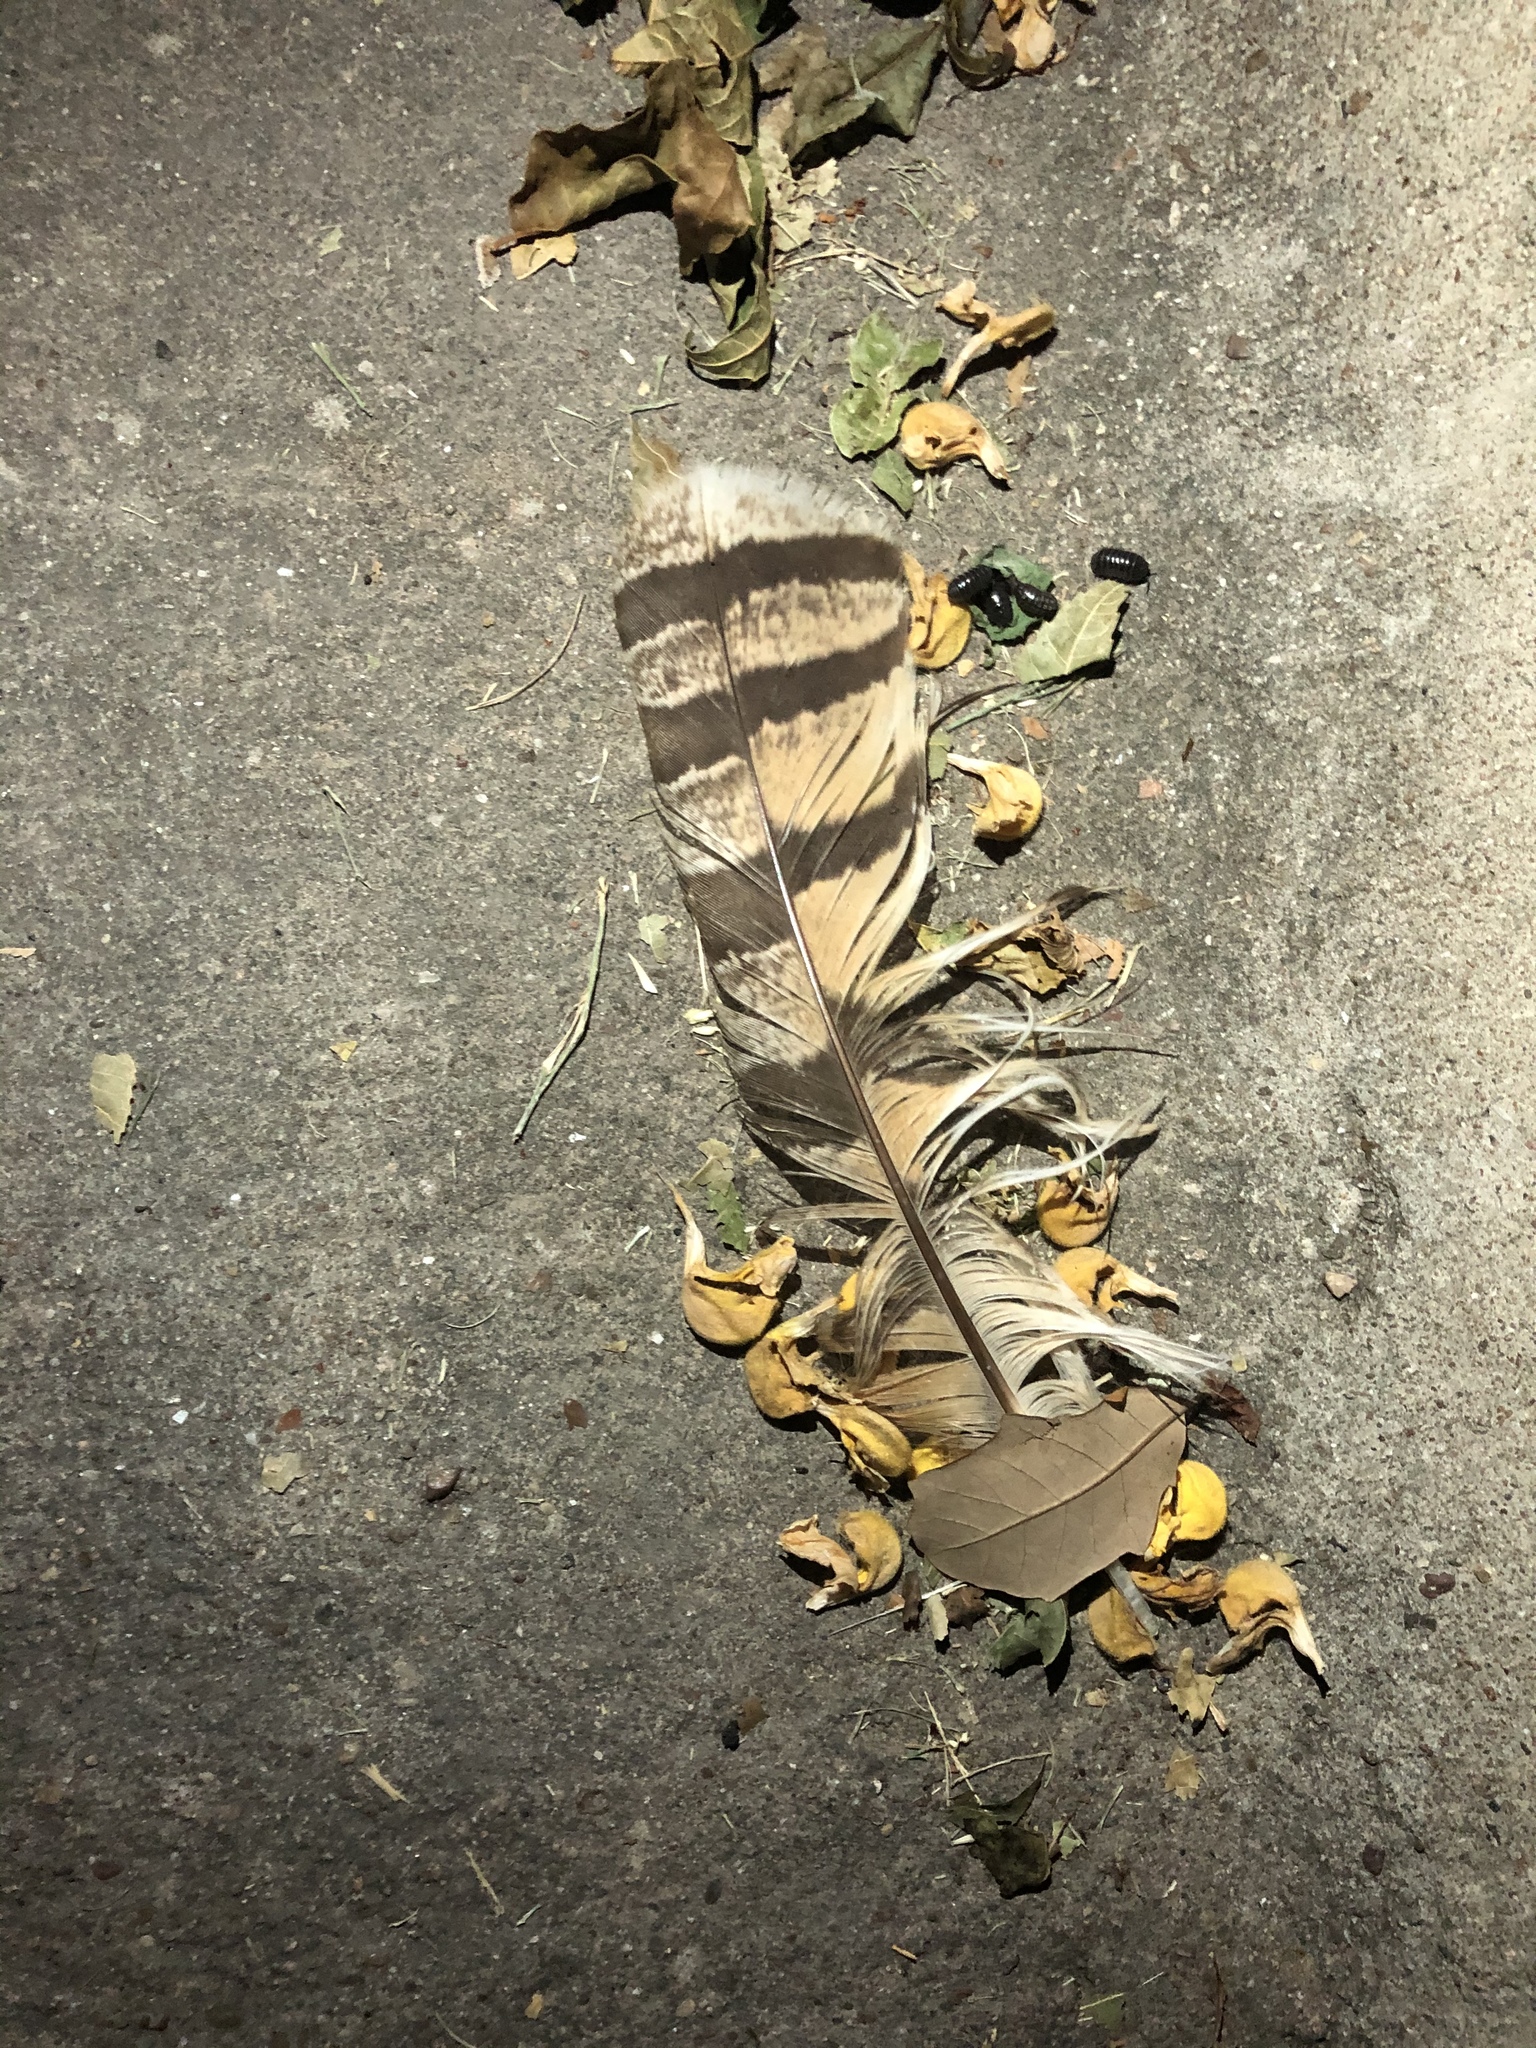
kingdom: Animalia
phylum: Chordata
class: Aves
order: Strigiformes
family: Strigidae
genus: Bubo
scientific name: Bubo virginianus
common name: Great horned owl
